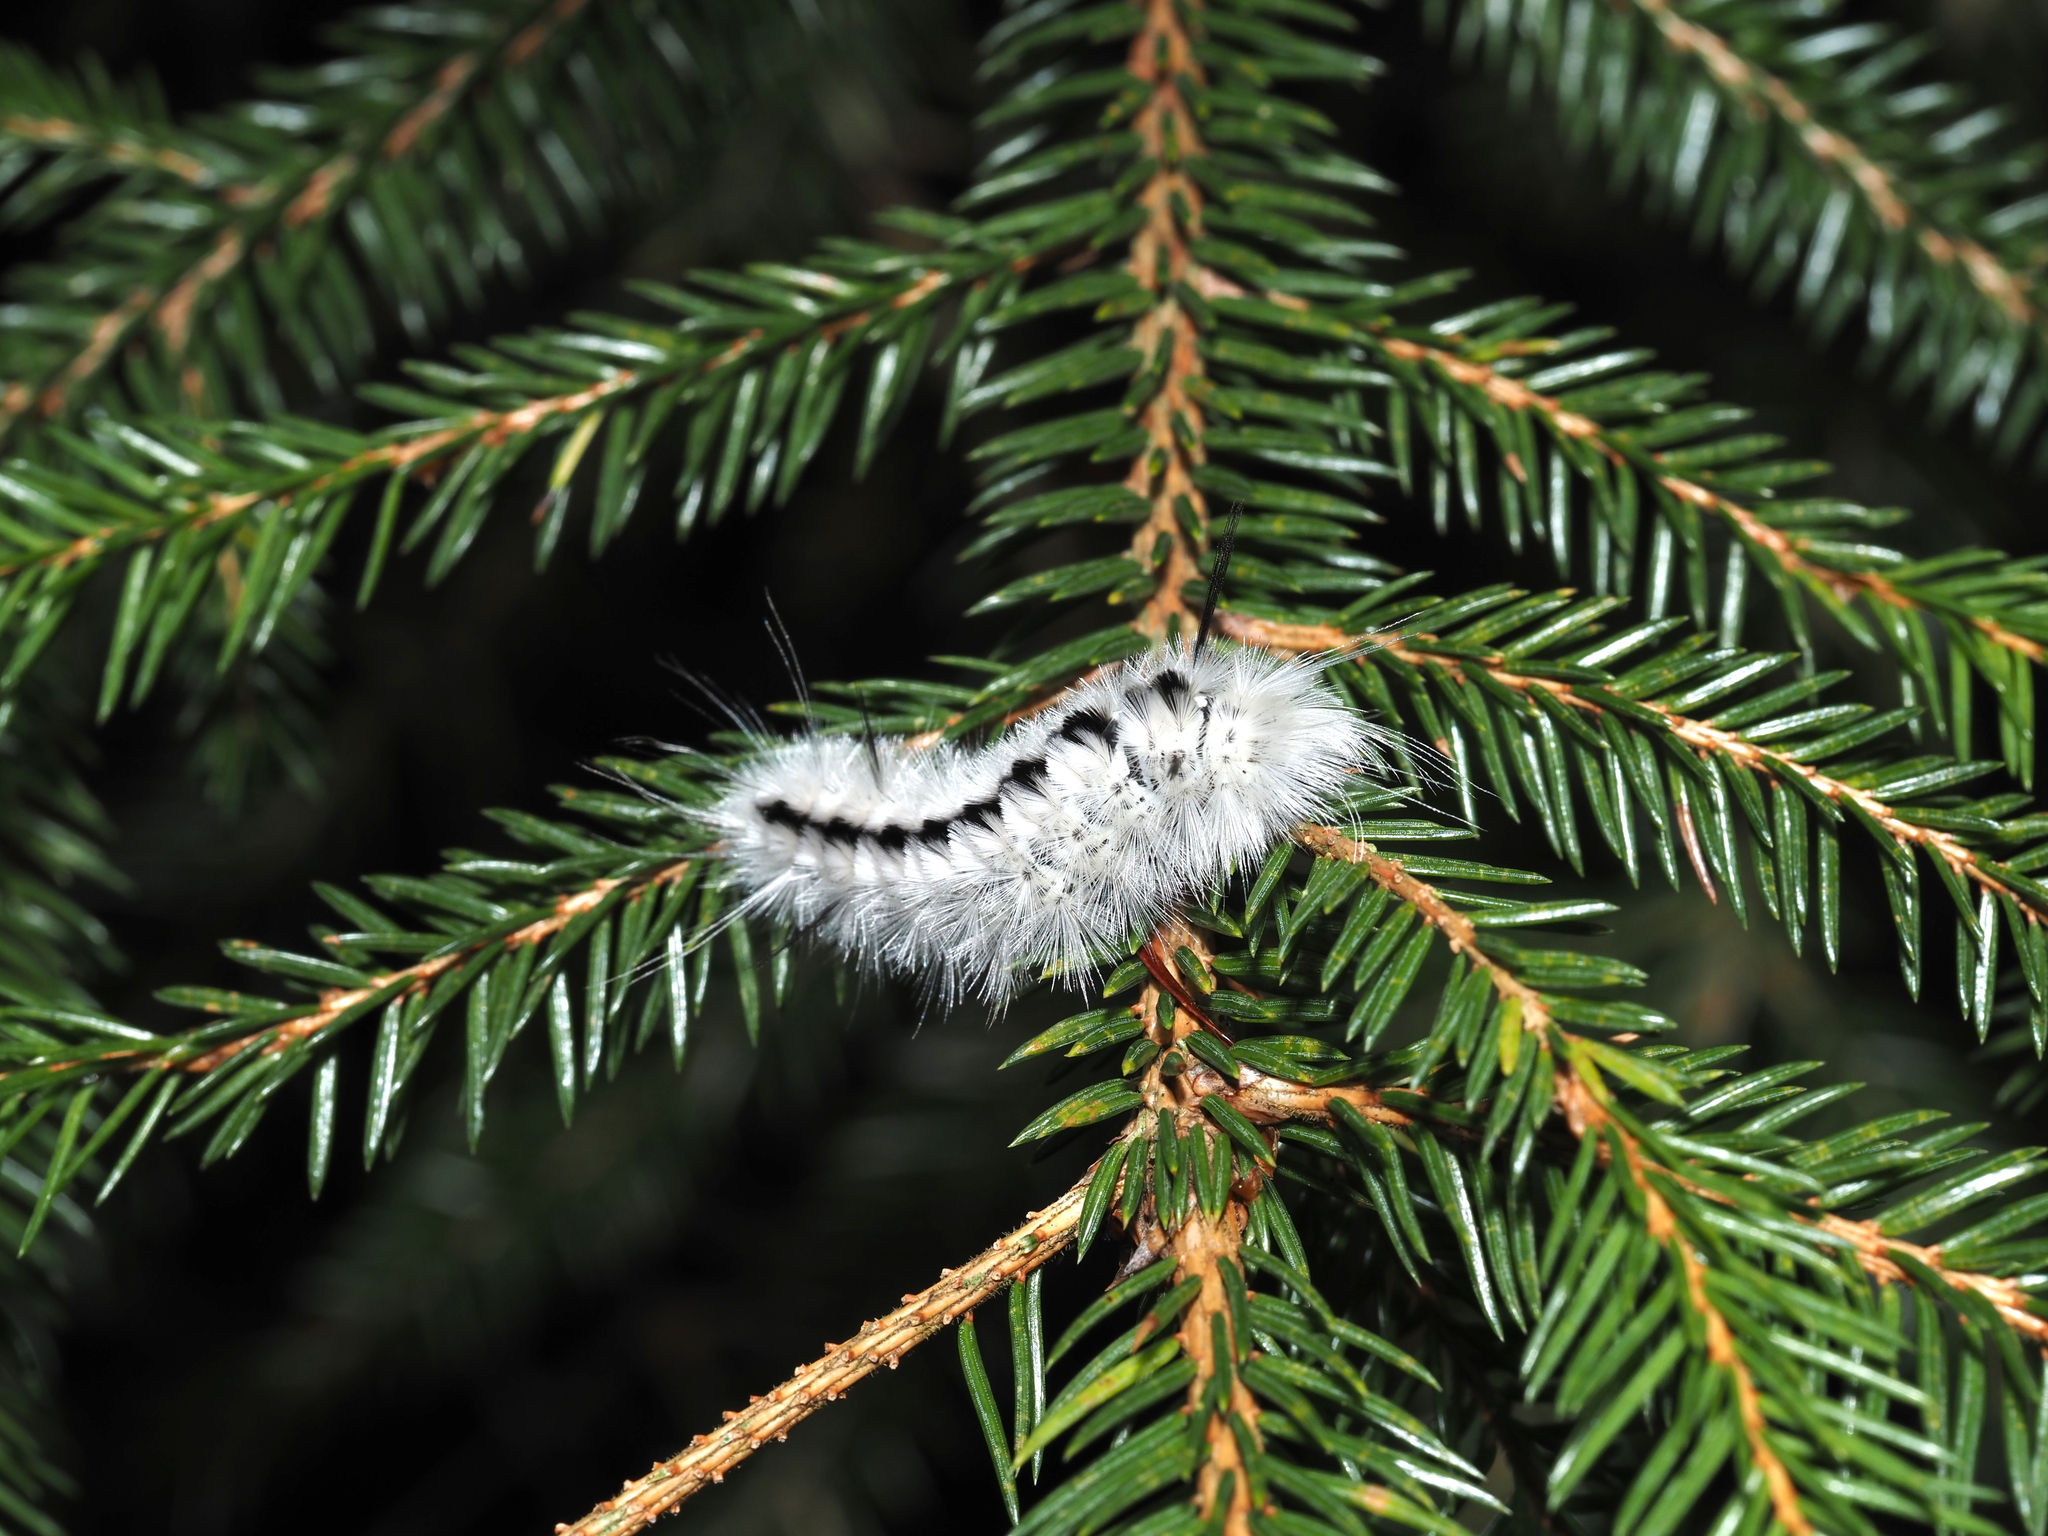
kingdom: Animalia
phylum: Arthropoda
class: Insecta
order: Lepidoptera
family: Erebidae
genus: Lophocampa
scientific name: Lophocampa caryae
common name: Hickory tussock moth
